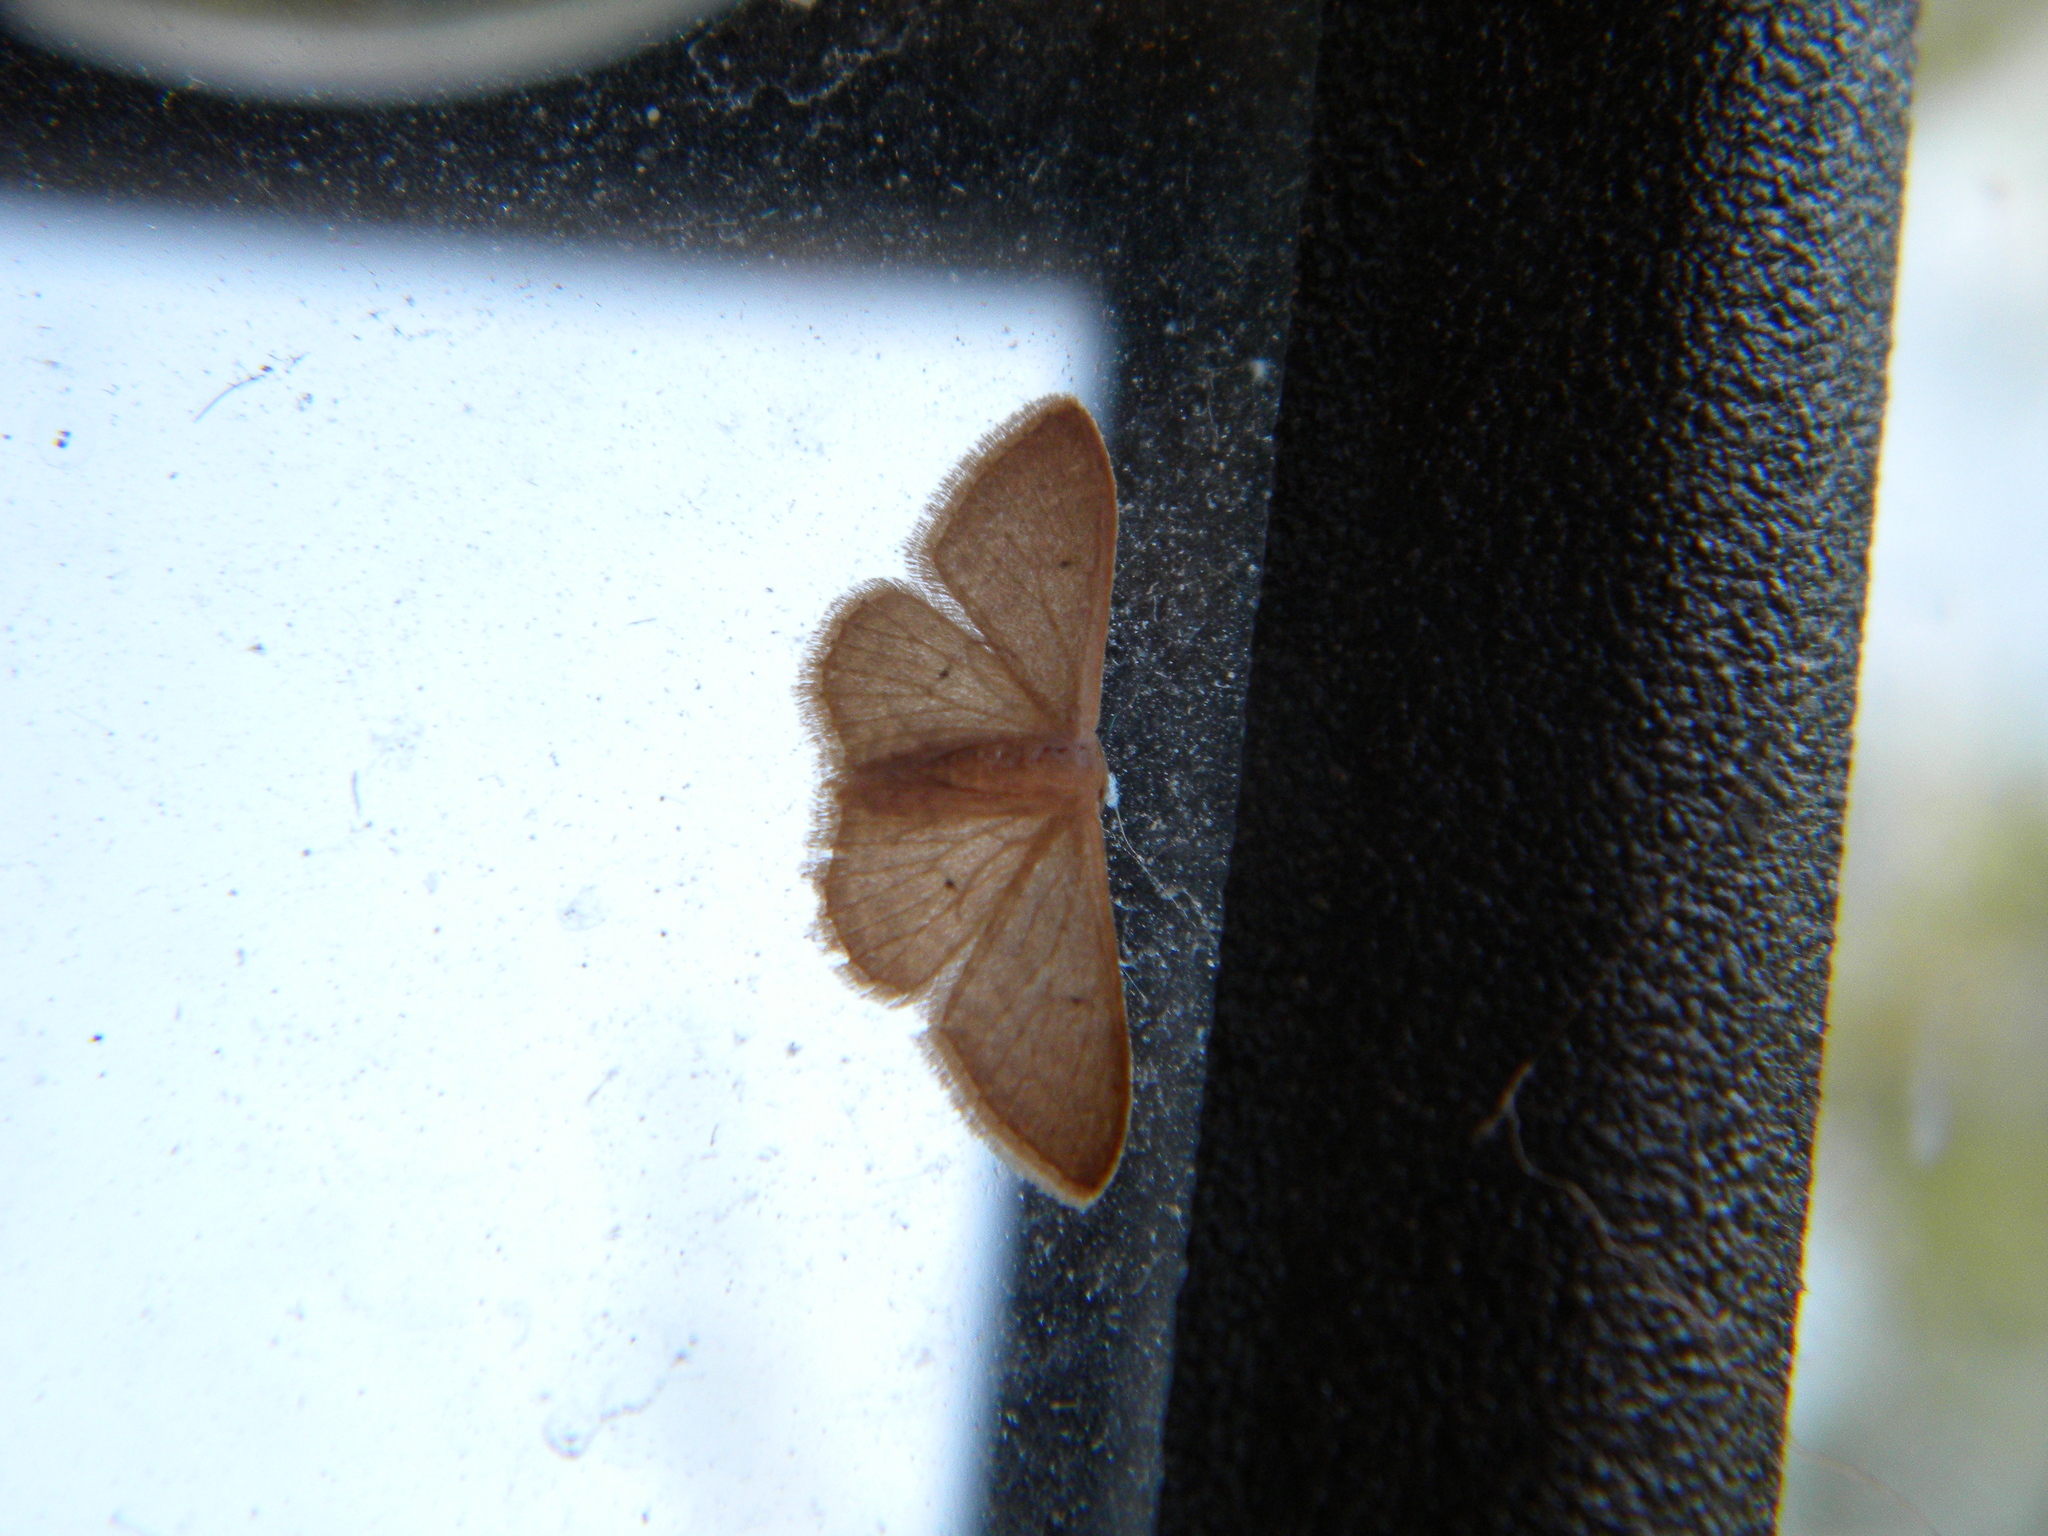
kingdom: Animalia
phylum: Arthropoda
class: Insecta
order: Lepidoptera
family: Geometridae
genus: Idaea
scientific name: Idaea distinctaria
